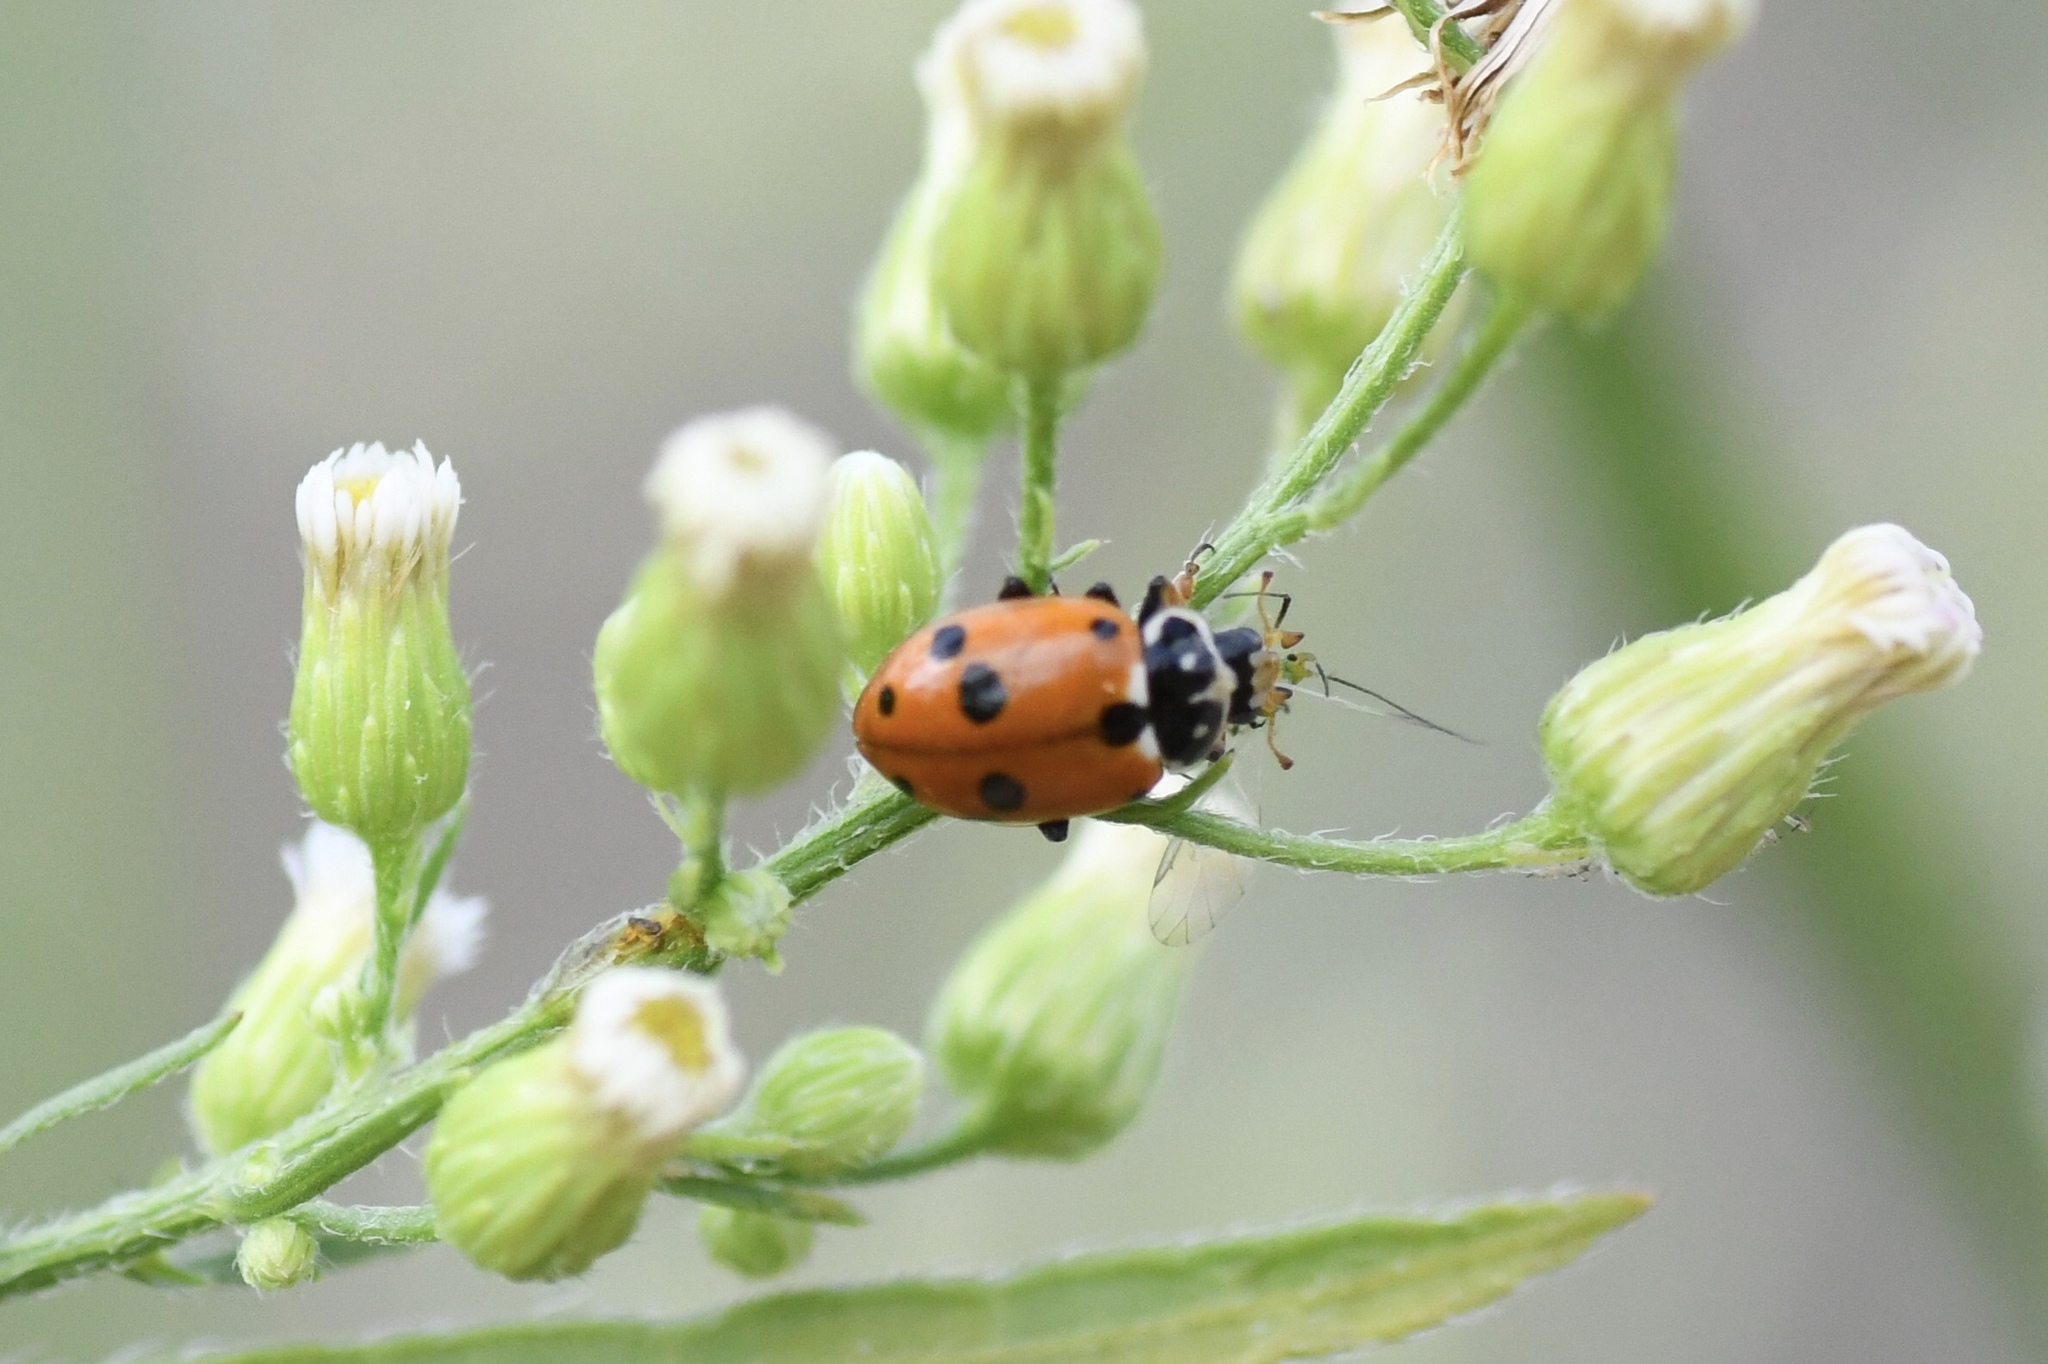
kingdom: Animalia
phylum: Arthropoda
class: Insecta
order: Coleoptera
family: Coccinellidae
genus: Hippodamia
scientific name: Hippodamia variegata
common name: Ladybird beetle
